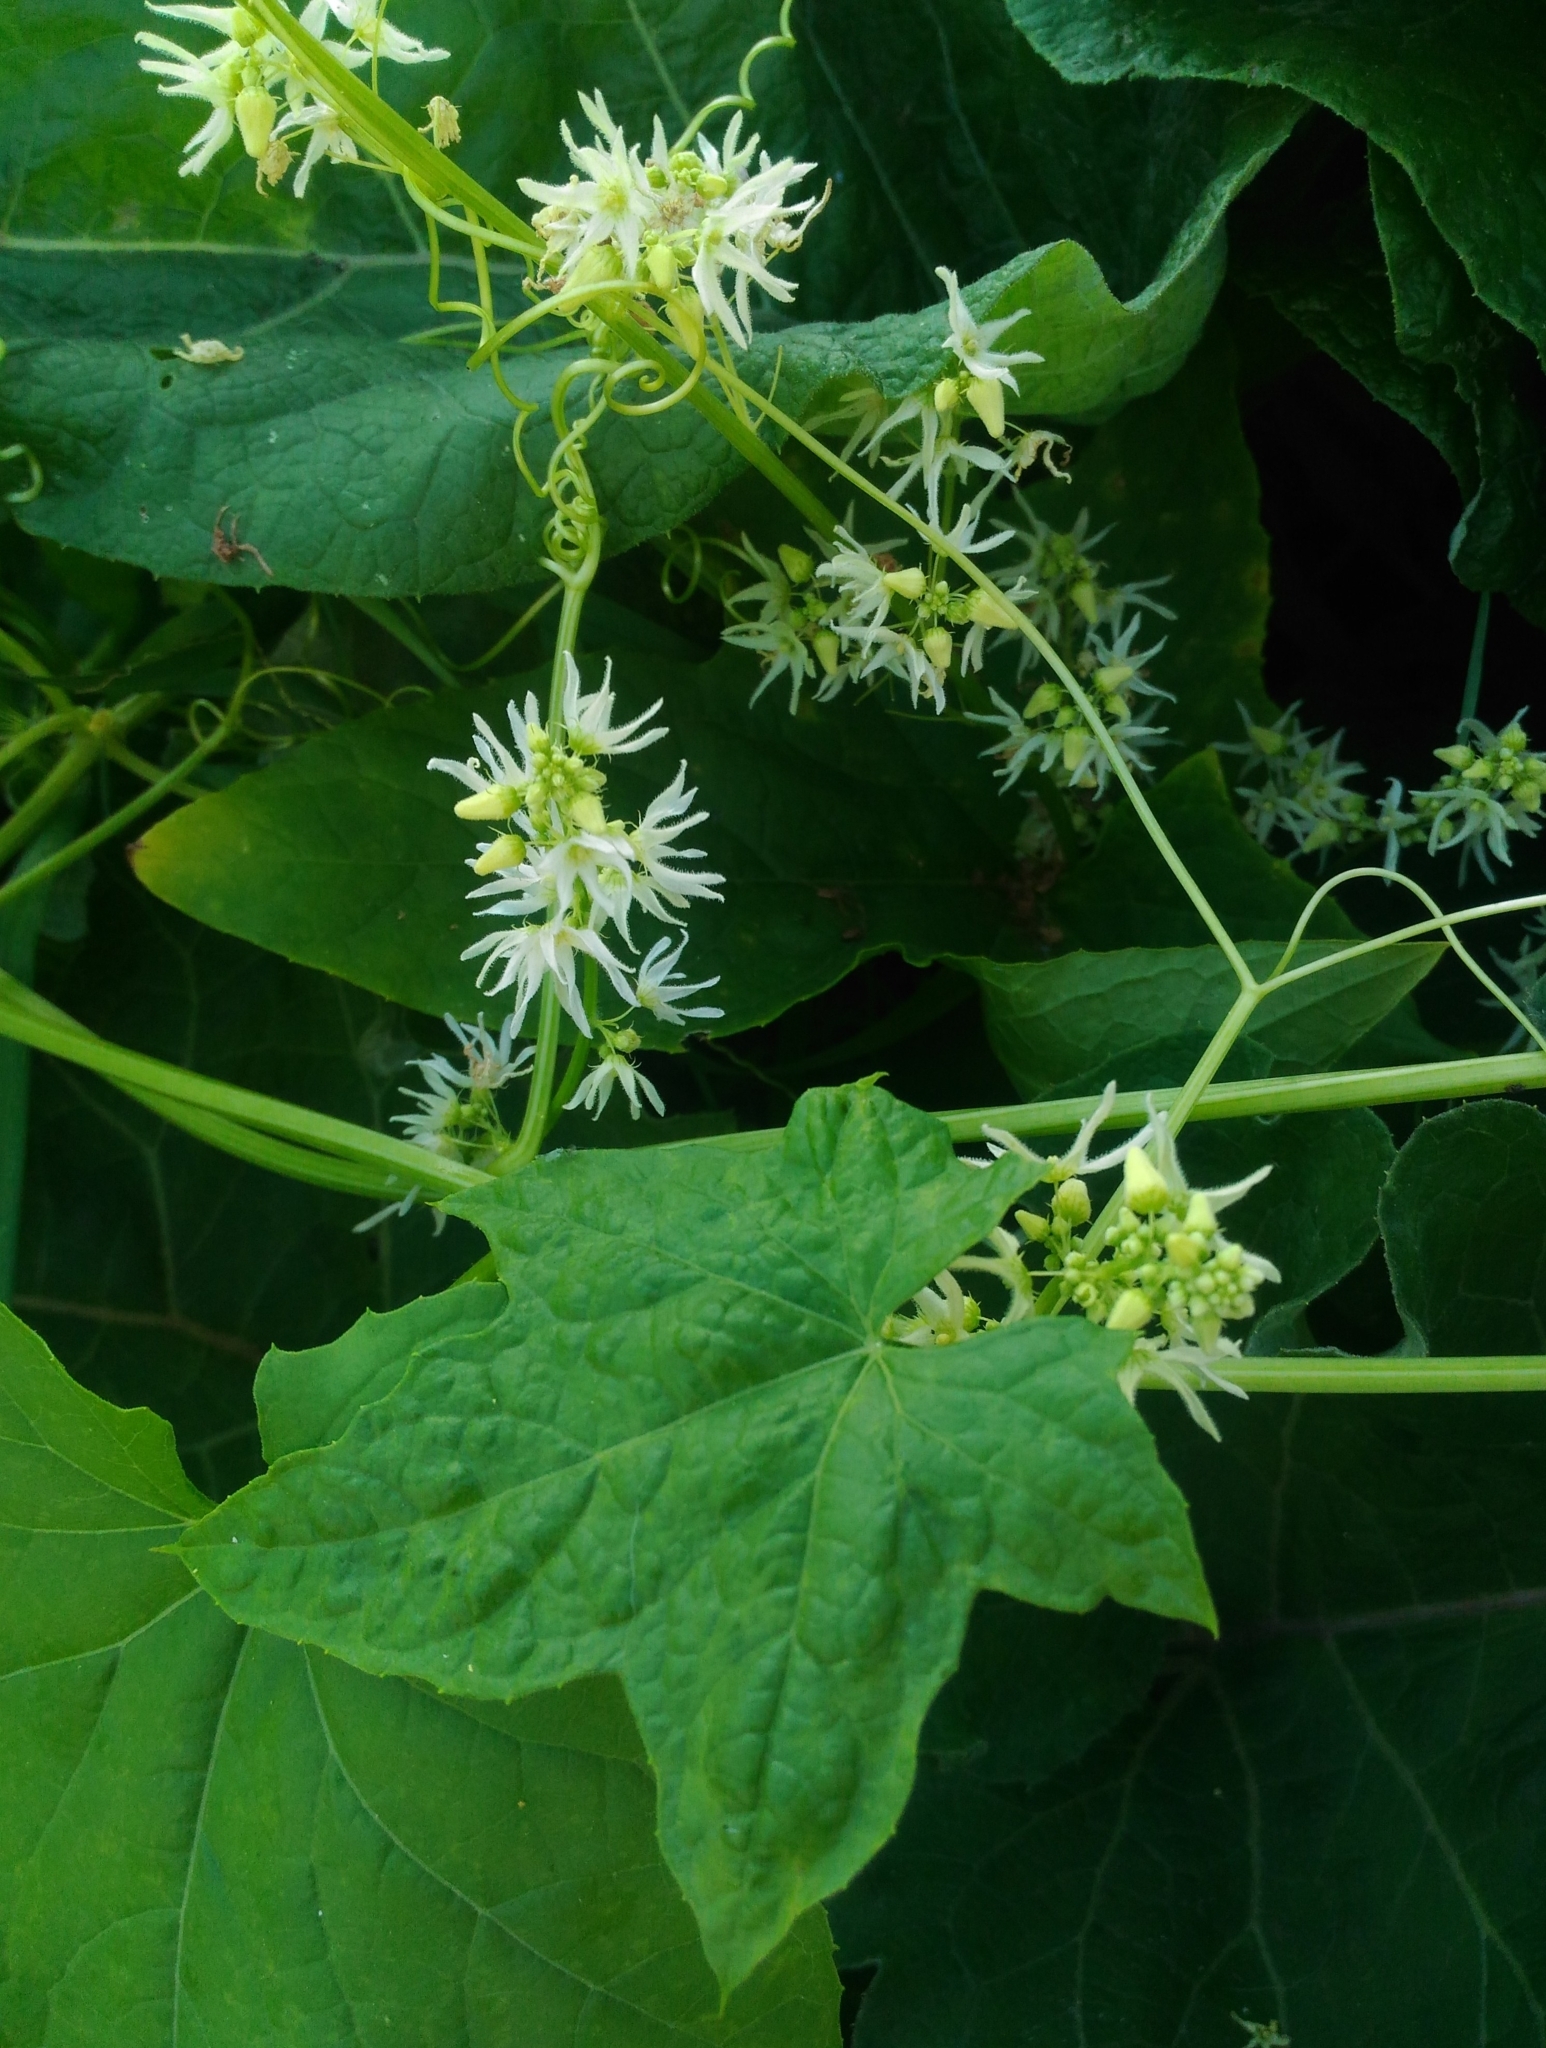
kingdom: Plantae
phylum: Tracheophyta
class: Magnoliopsida
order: Cucurbitales
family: Cucurbitaceae
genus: Echinocystis
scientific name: Echinocystis lobata
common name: Wild cucumber
